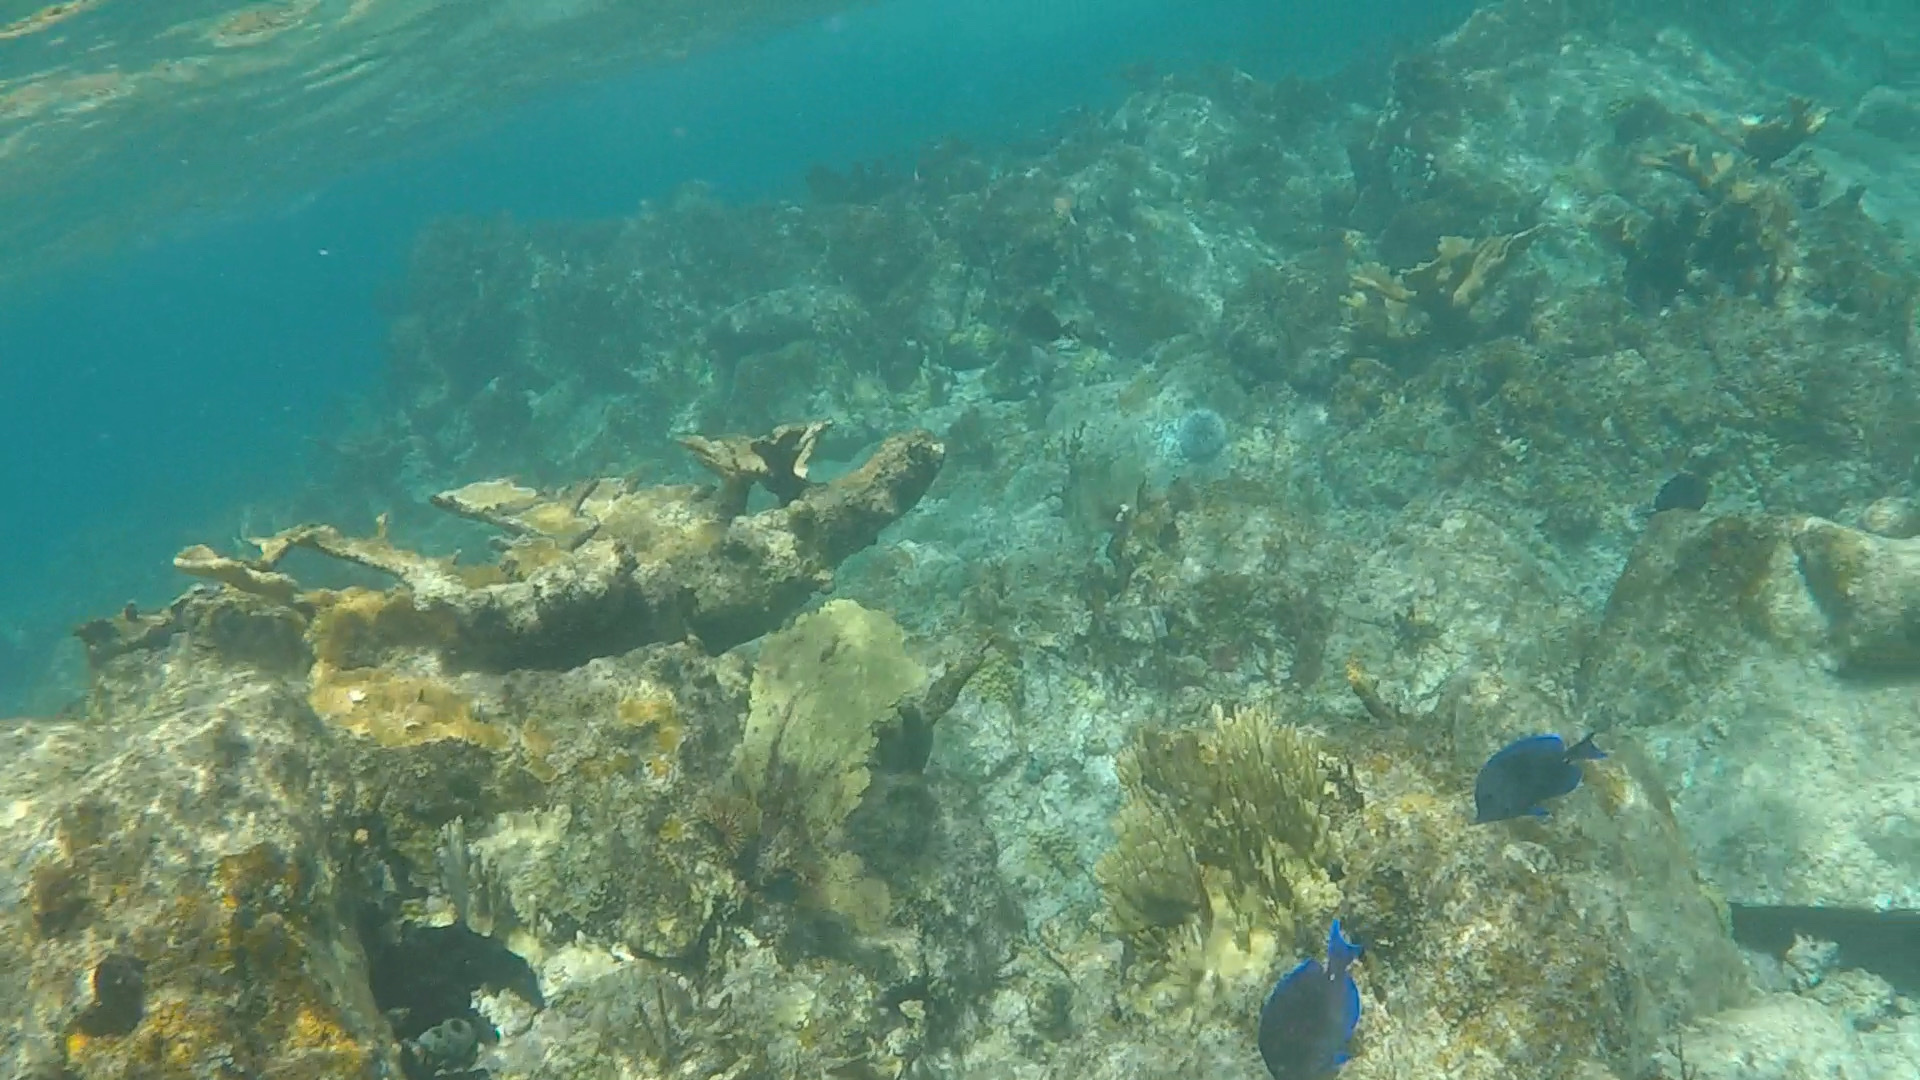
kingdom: Animalia
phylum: Cnidaria
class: Anthozoa
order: Scleractinia
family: Acroporidae
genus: Acropora
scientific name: Acropora palmata
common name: Elkhorn coral
